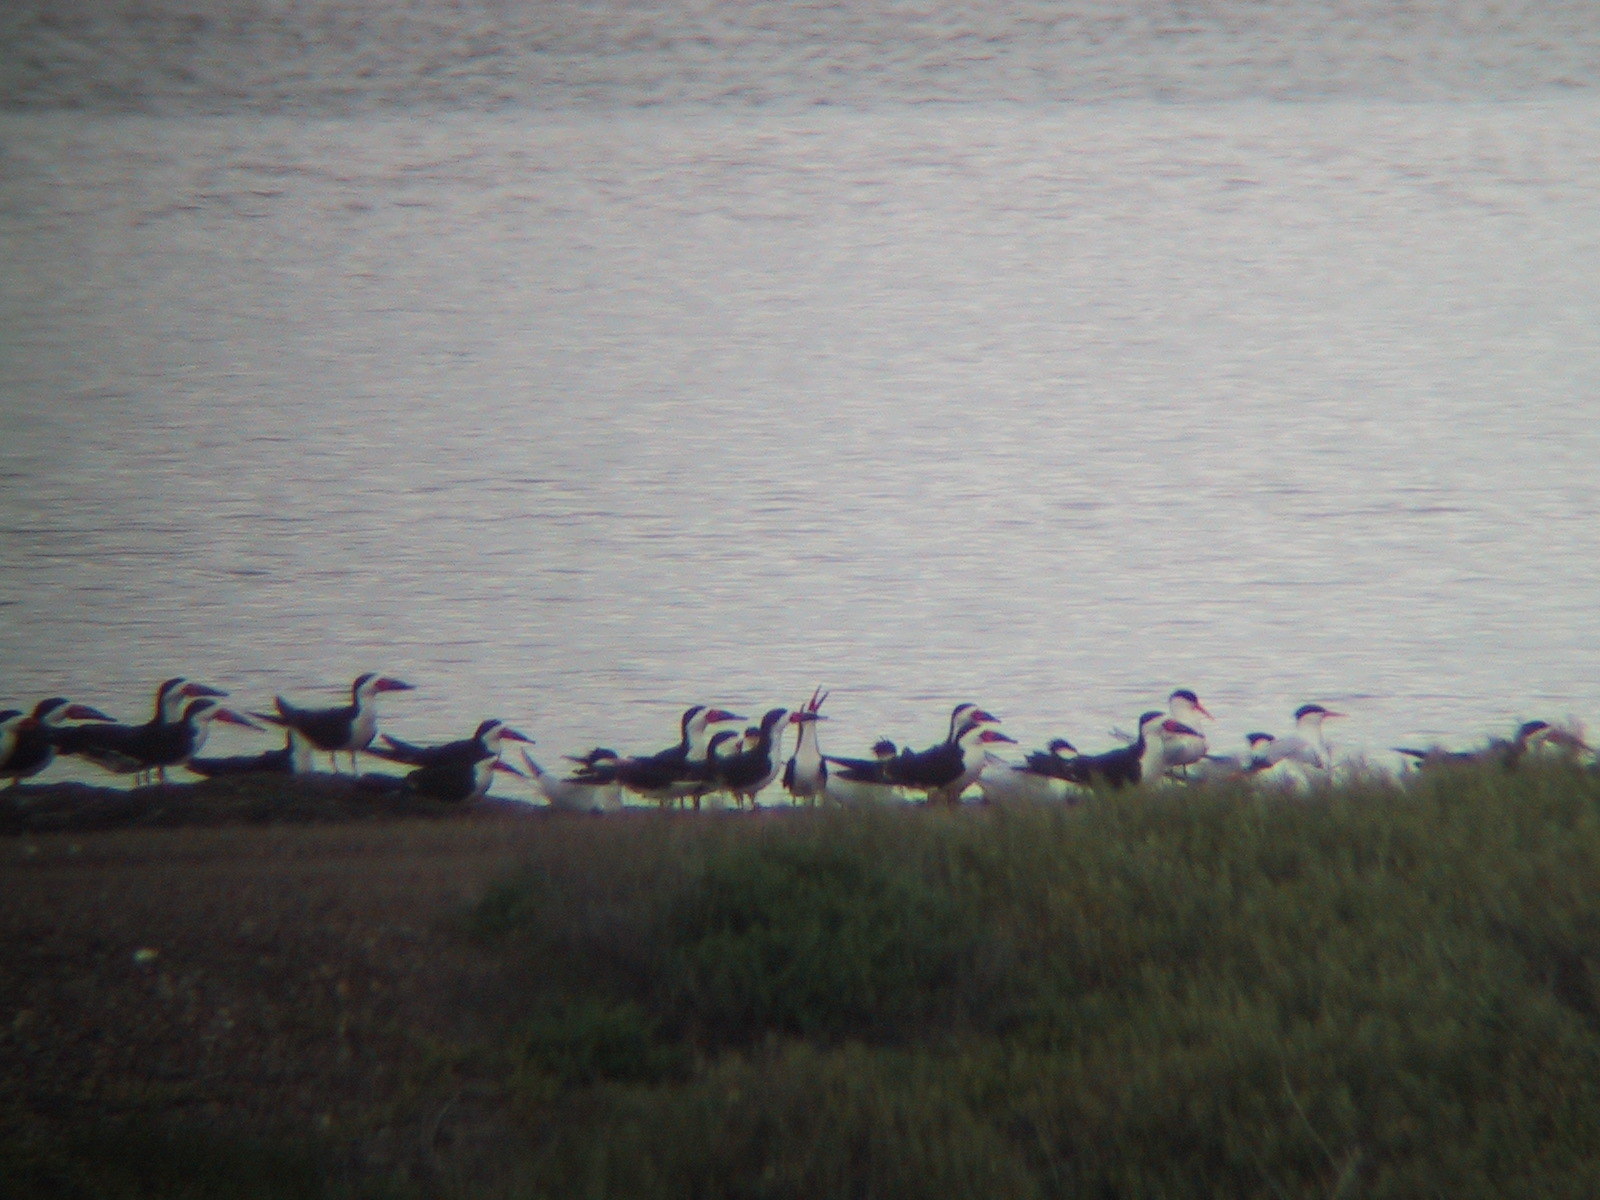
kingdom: Animalia
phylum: Chordata
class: Aves
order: Charadriiformes
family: Laridae
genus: Thalasseus
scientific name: Thalasseus elegans
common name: Elegant tern
